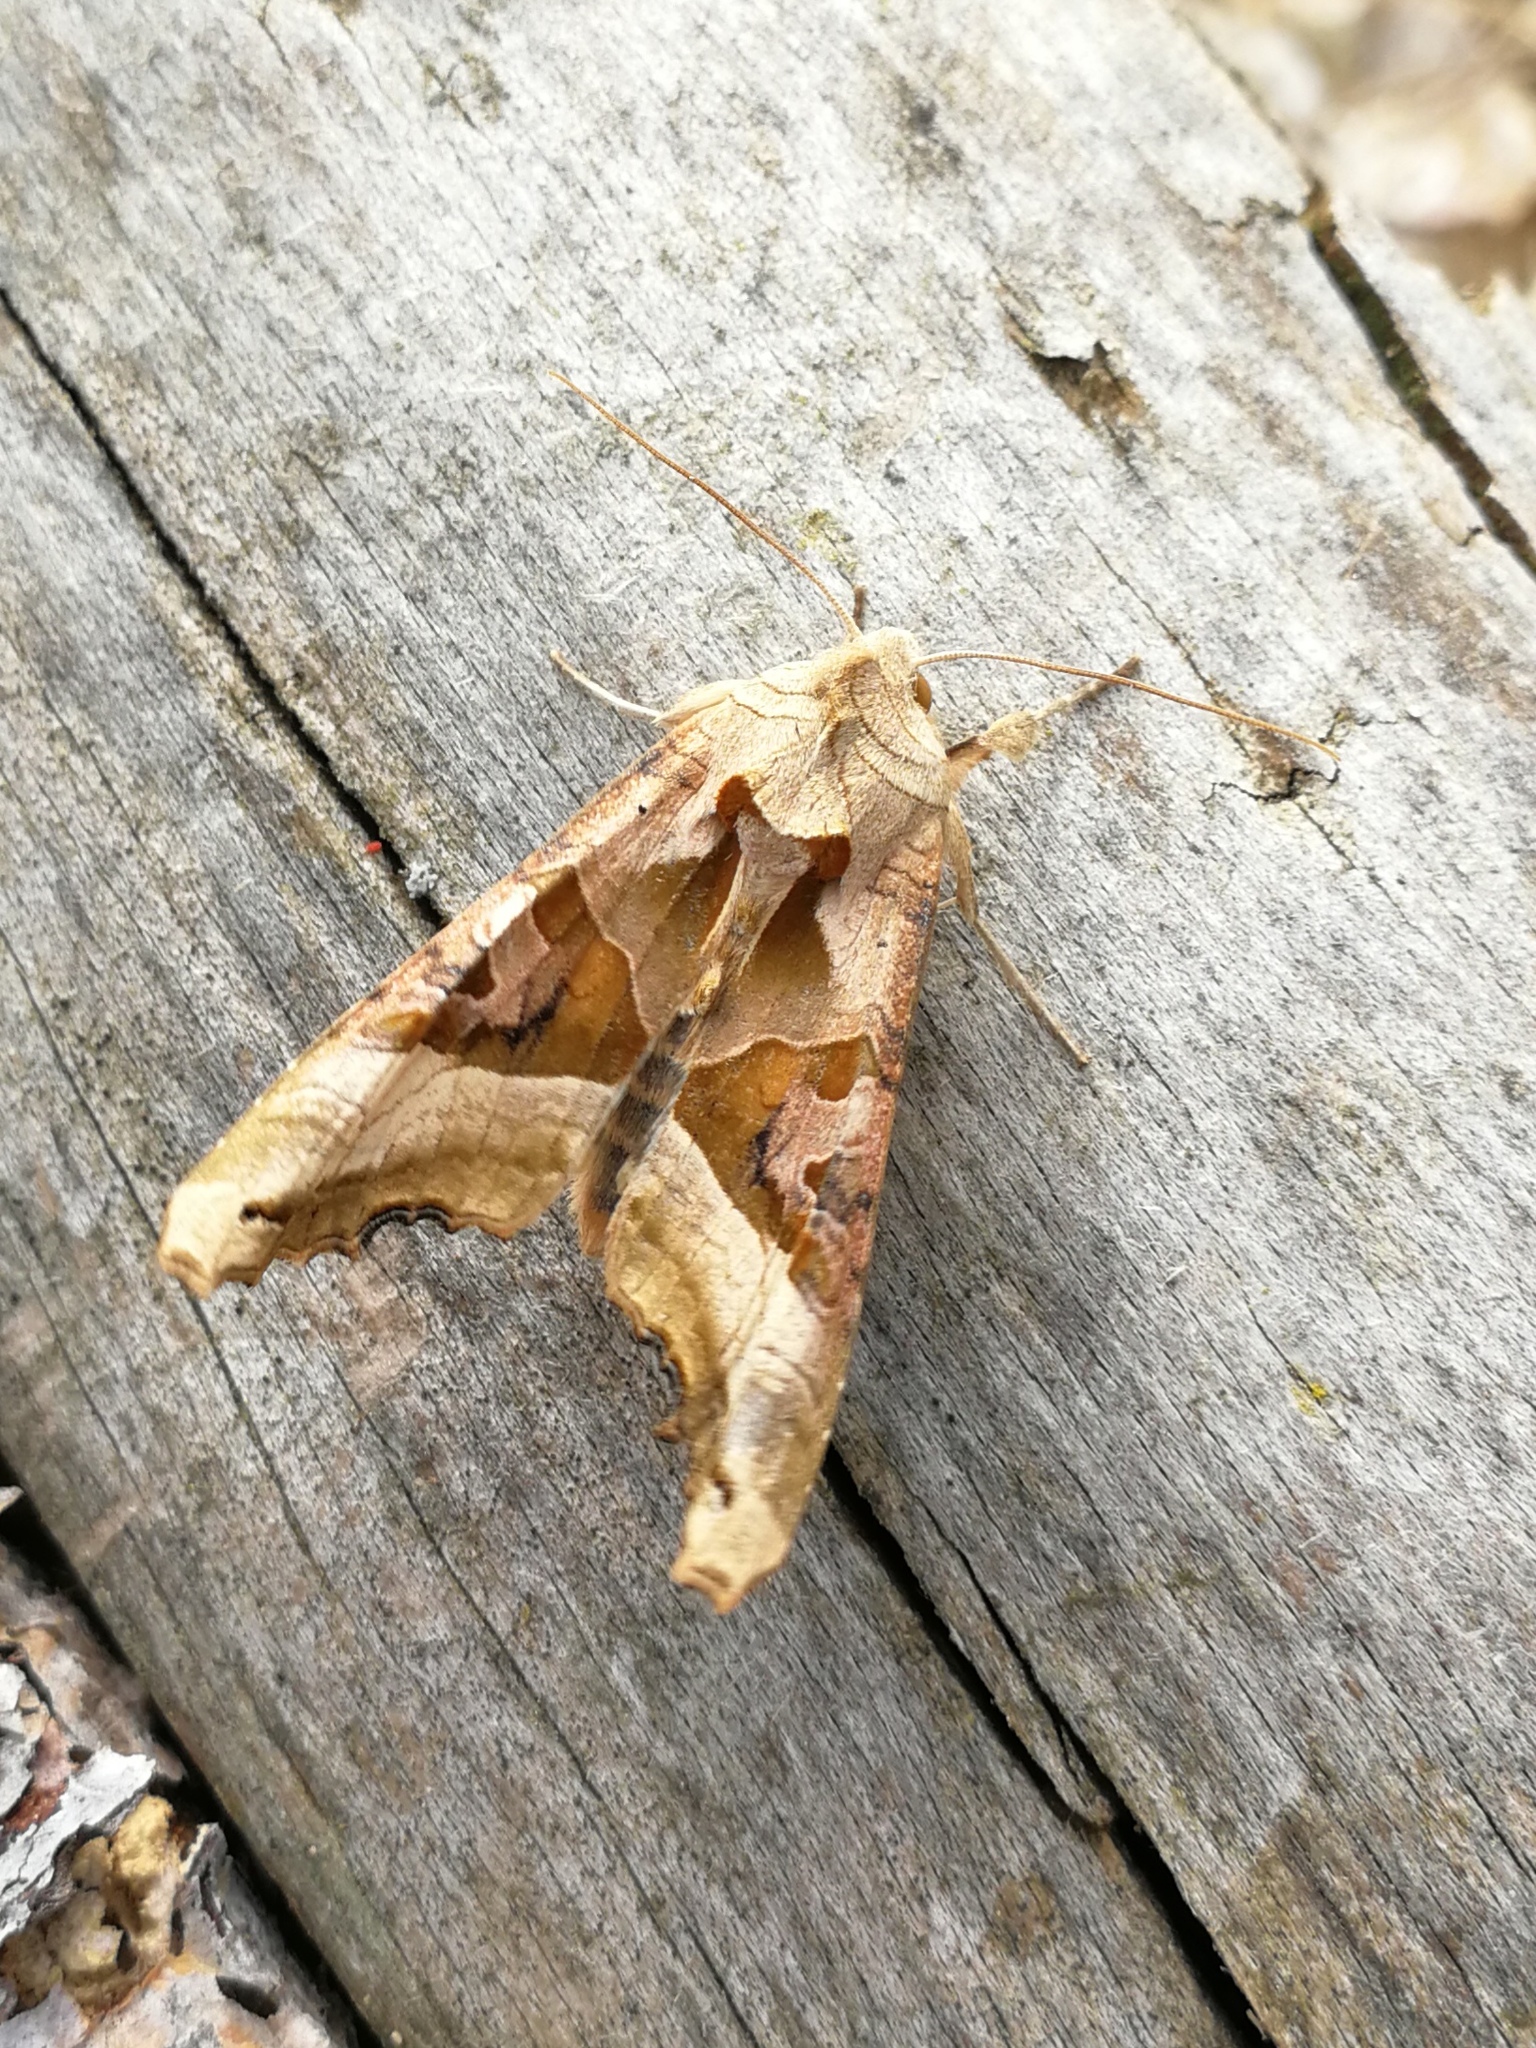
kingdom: Animalia
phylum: Arthropoda
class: Insecta
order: Lepidoptera
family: Noctuidae
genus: Phlogophora
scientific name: Phlogophora meticulosa
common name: Angle shades
